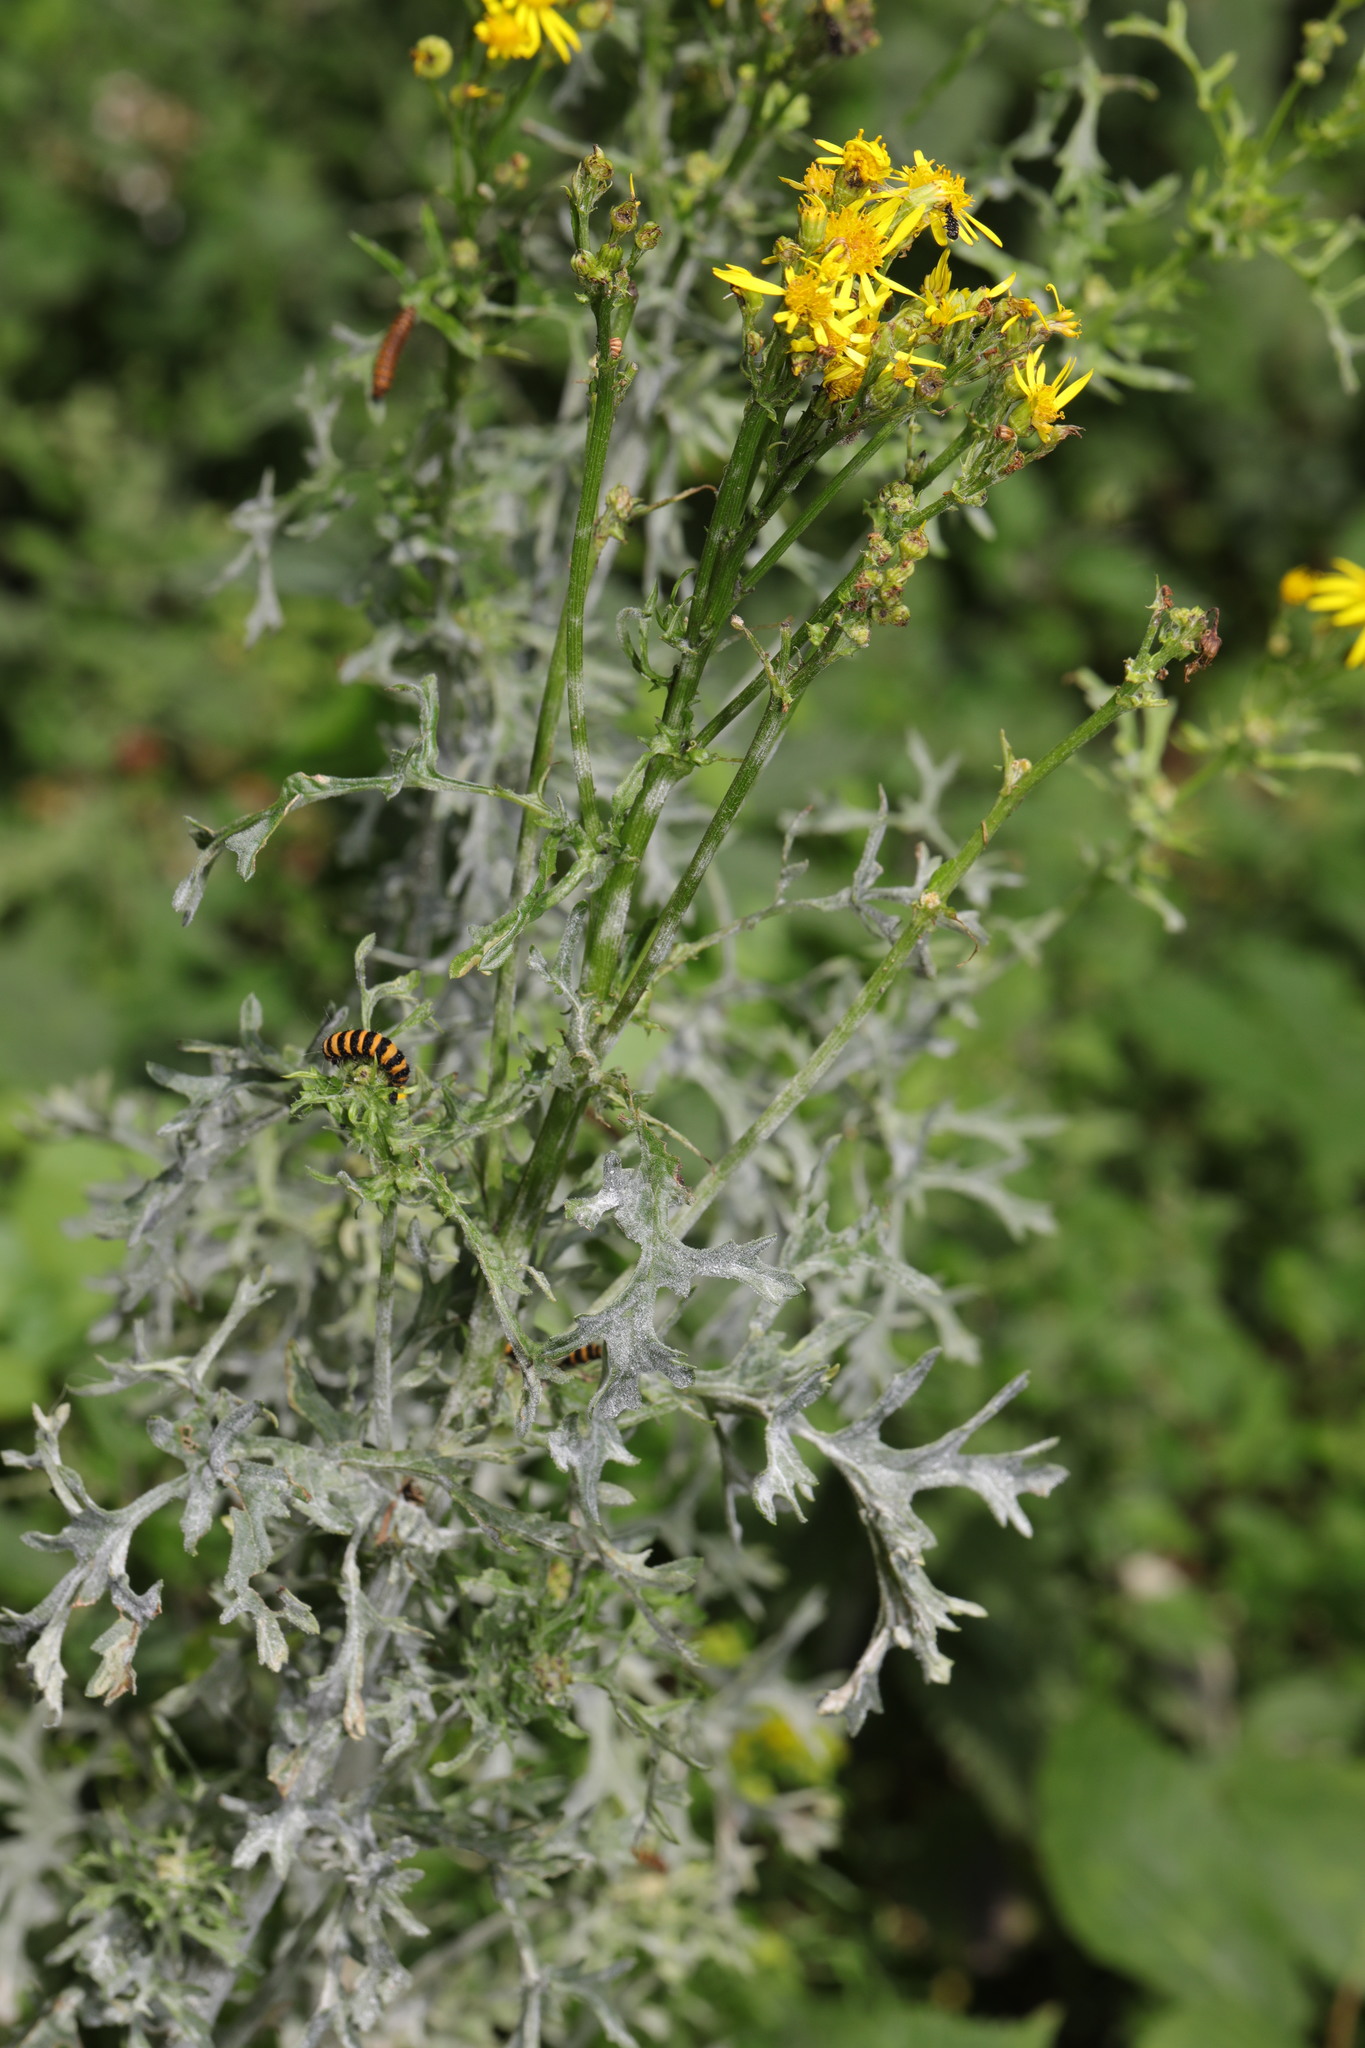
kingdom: Plantae
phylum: Tracheophyta
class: Magnoliopsida
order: Asterales
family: Asteraceae
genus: Jacobaea
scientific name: Jacobaea vulgaris
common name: Stinking willie
